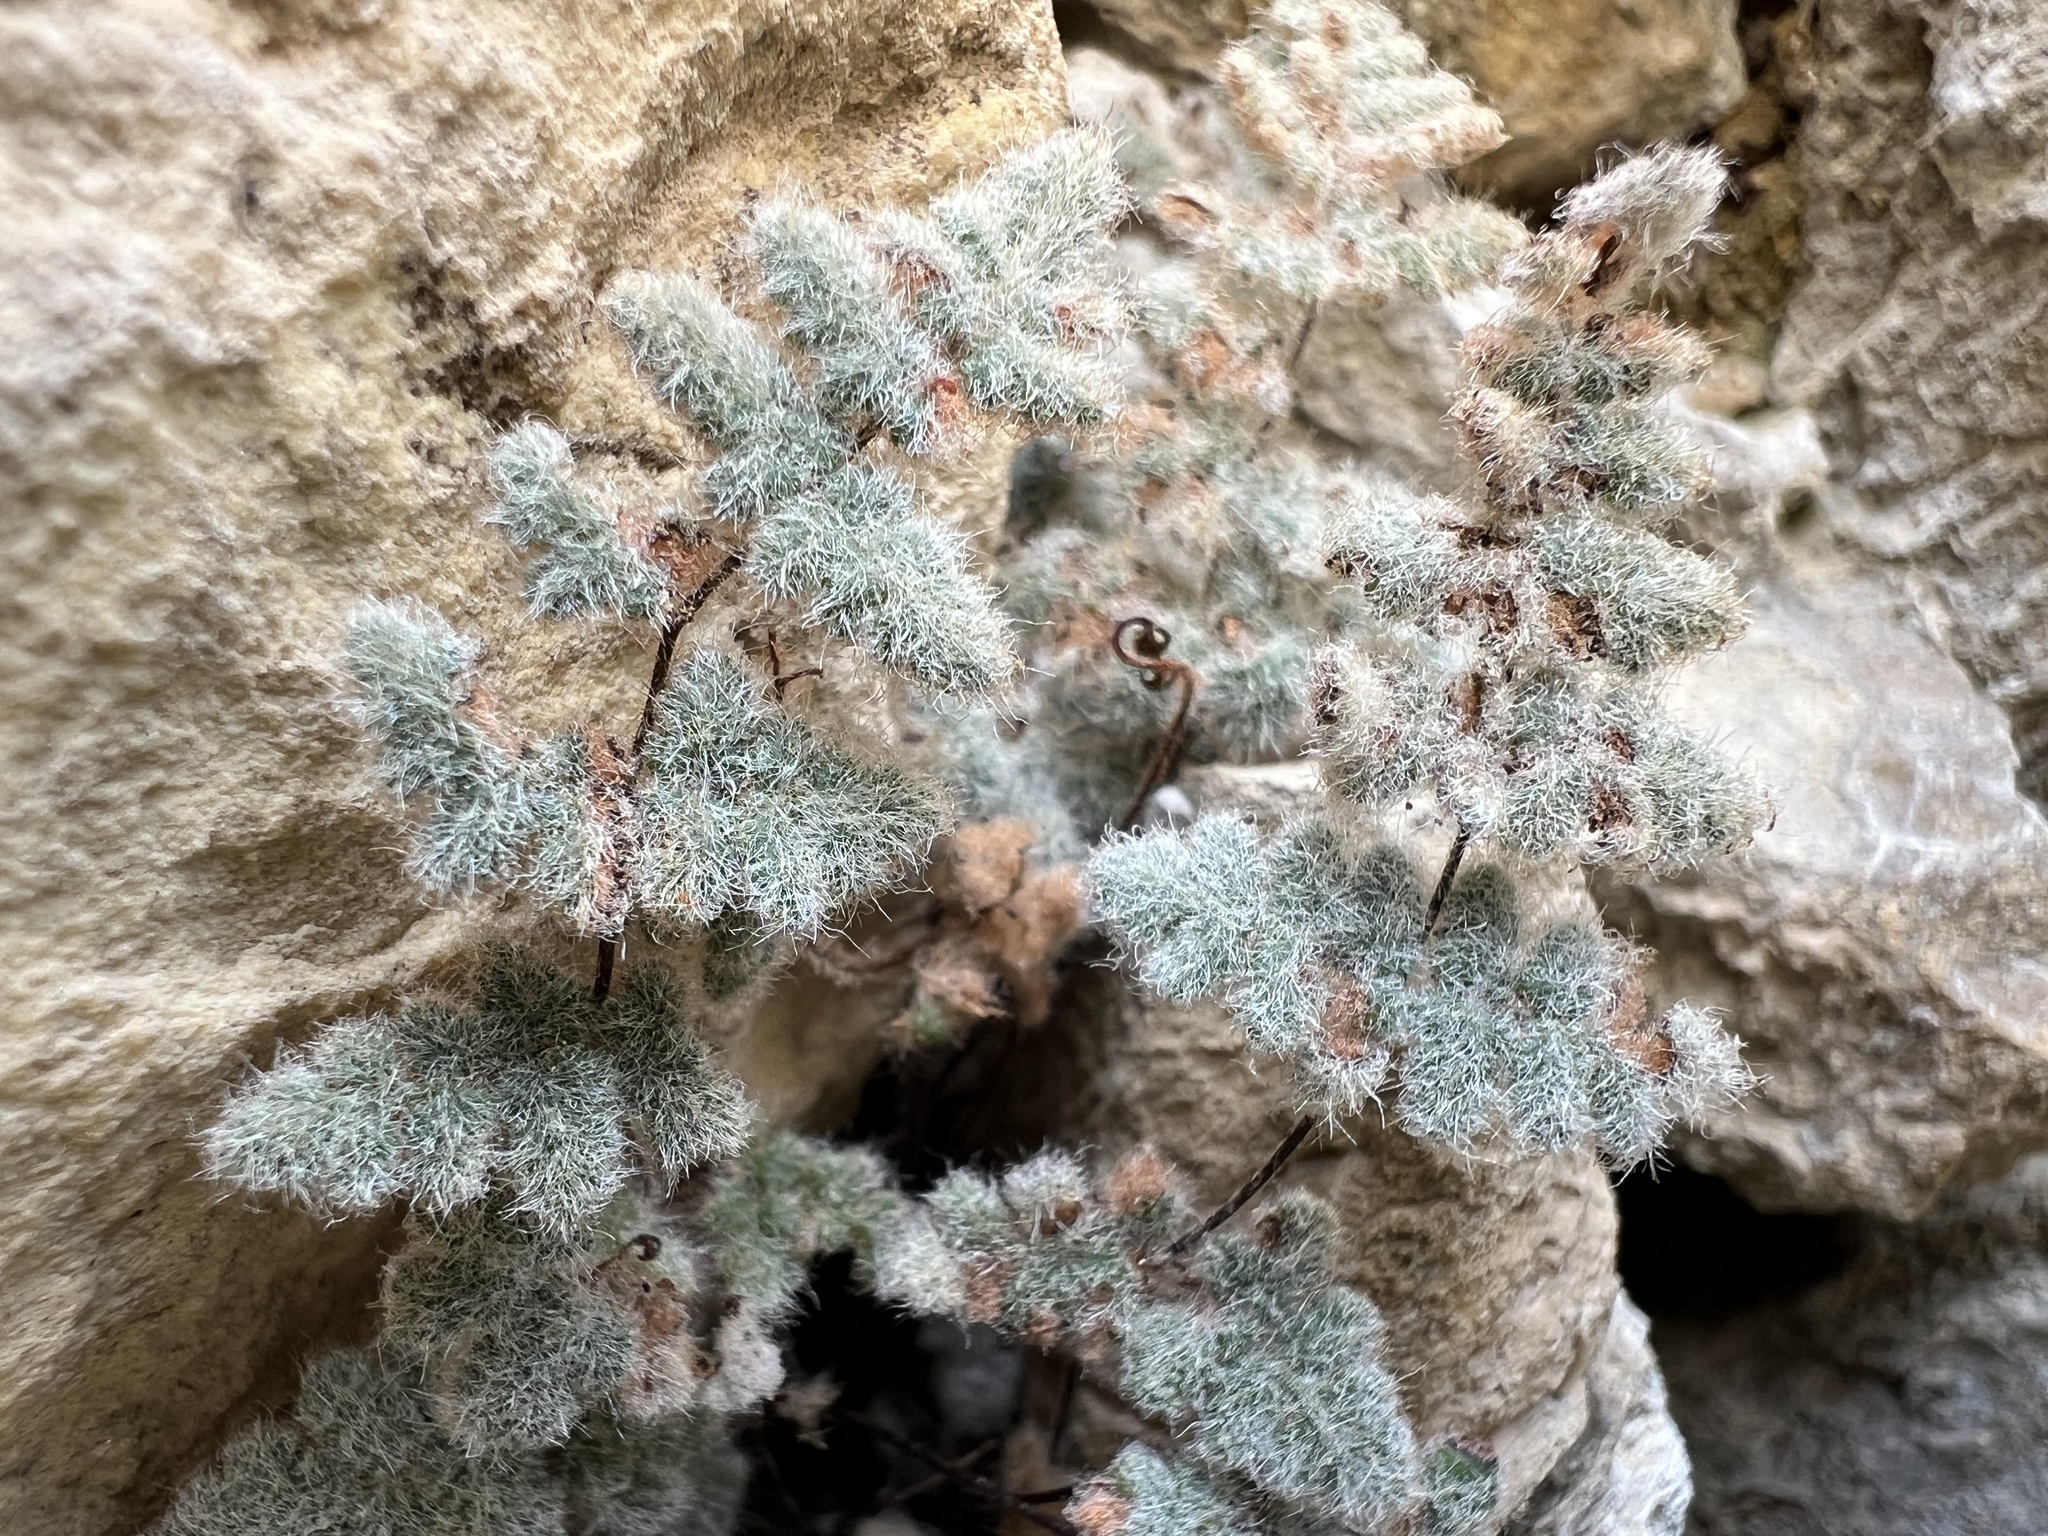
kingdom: Plantae
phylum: Tracheophyta
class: Polypodiopsida
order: Polypodiales
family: Pteridaceae
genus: Myriopteris
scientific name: Myriopteris parryi
